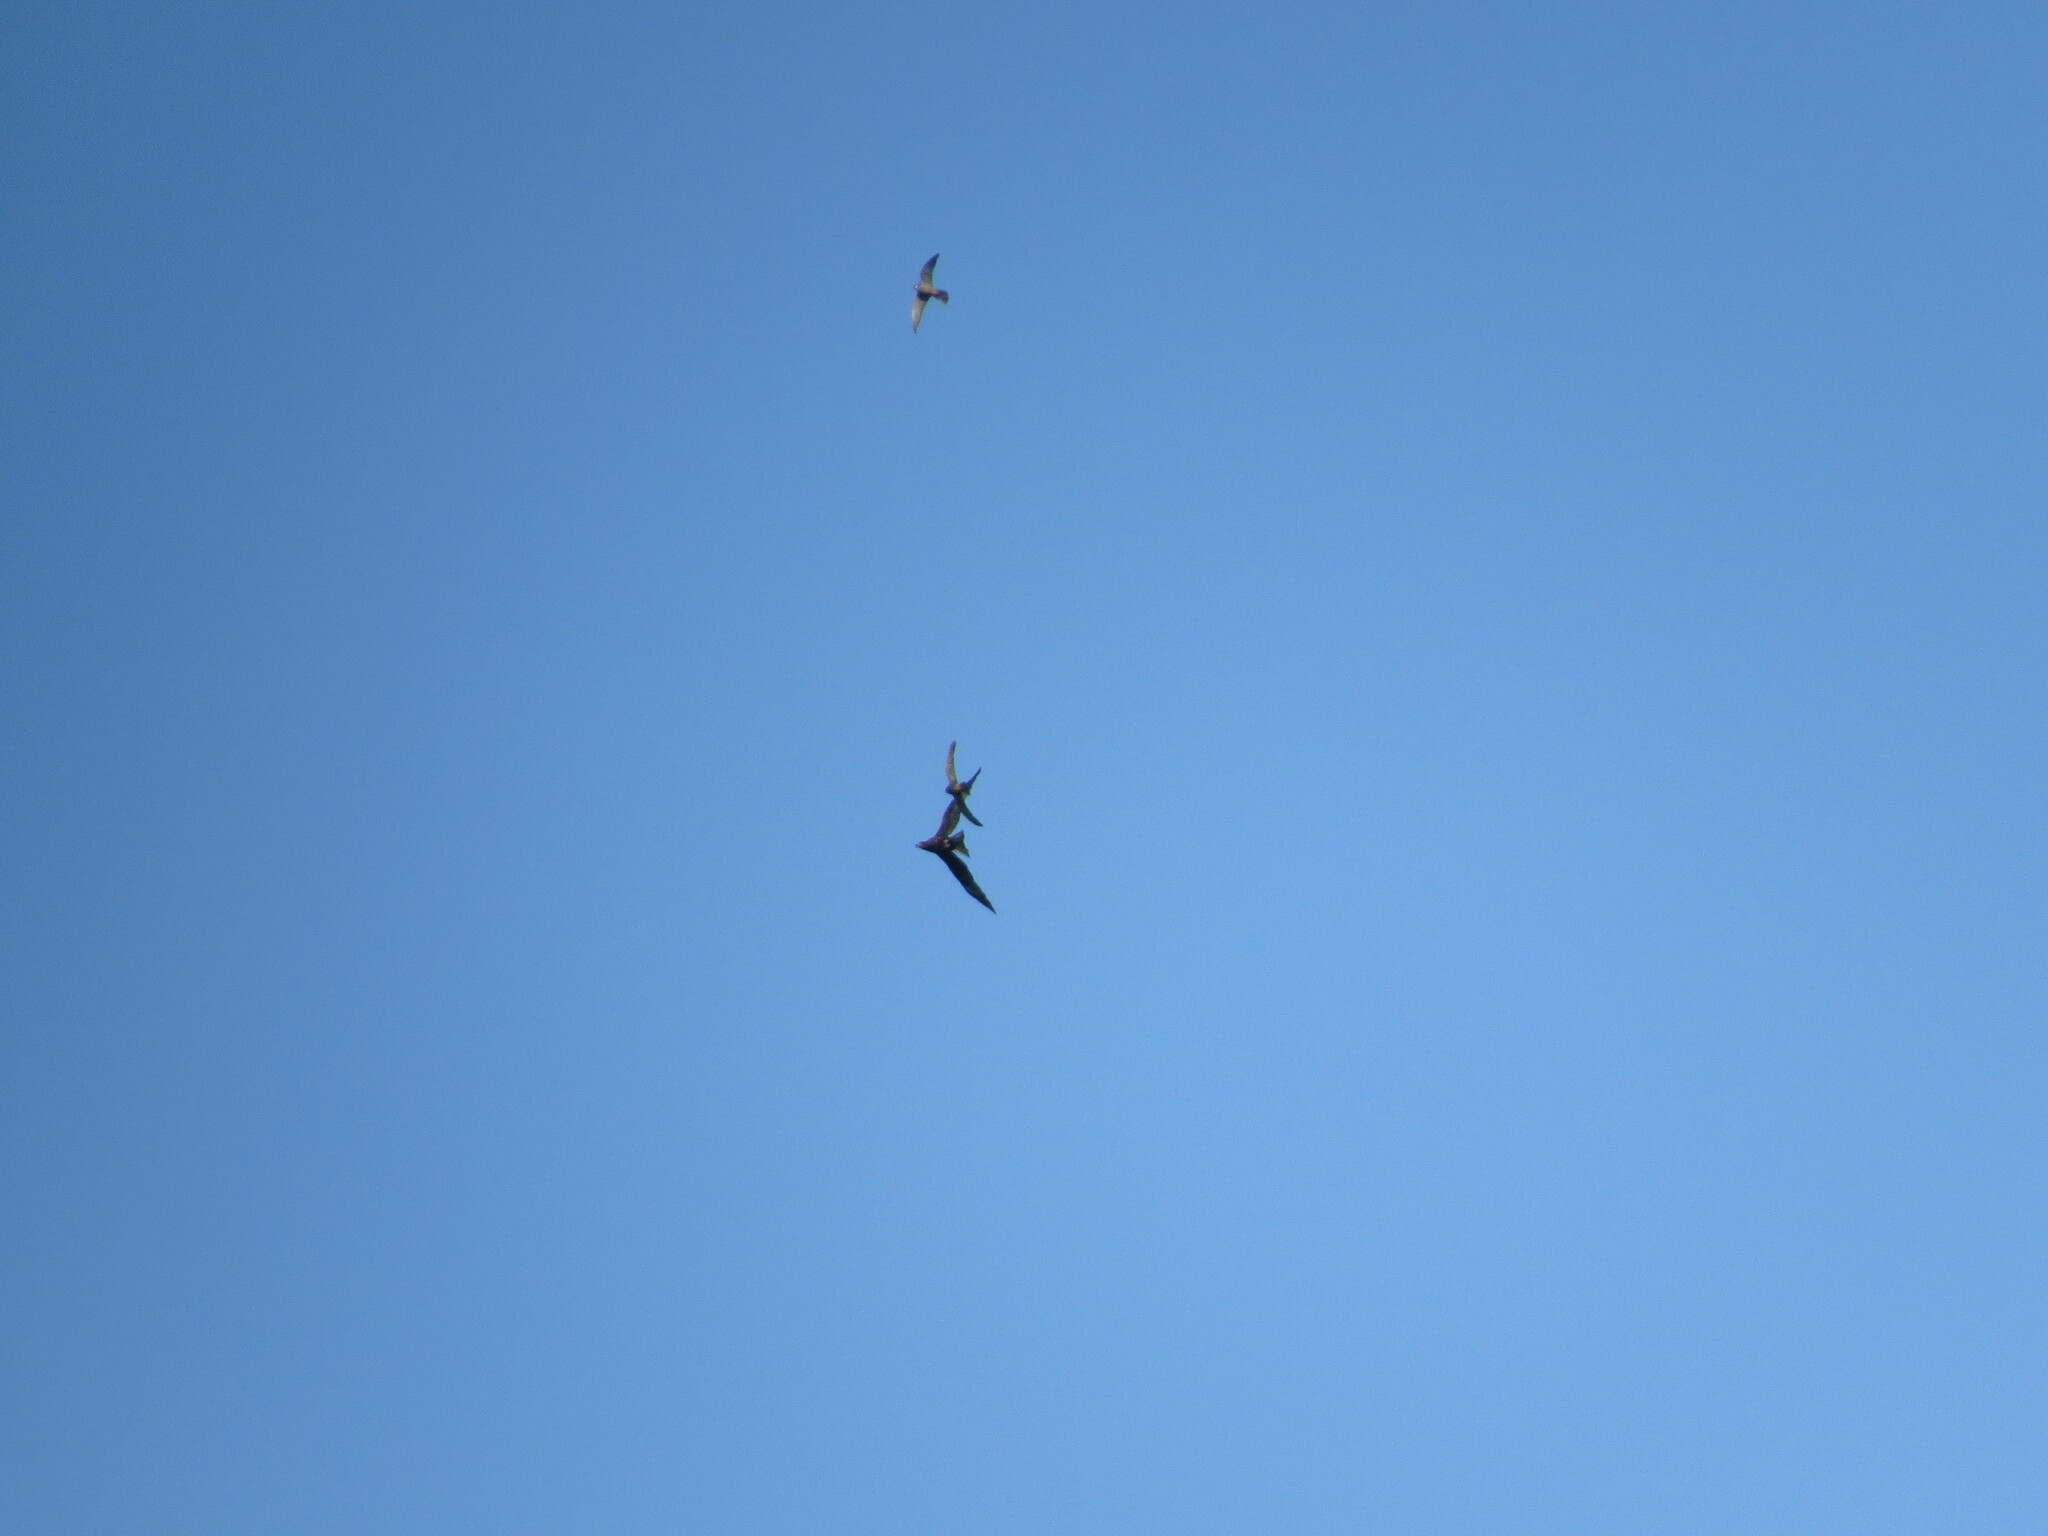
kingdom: Animalia
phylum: Chordata
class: Aves
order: Falconiformes
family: Falconidae
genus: Falco
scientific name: Falco subbuteo
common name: Eurasian hobby
